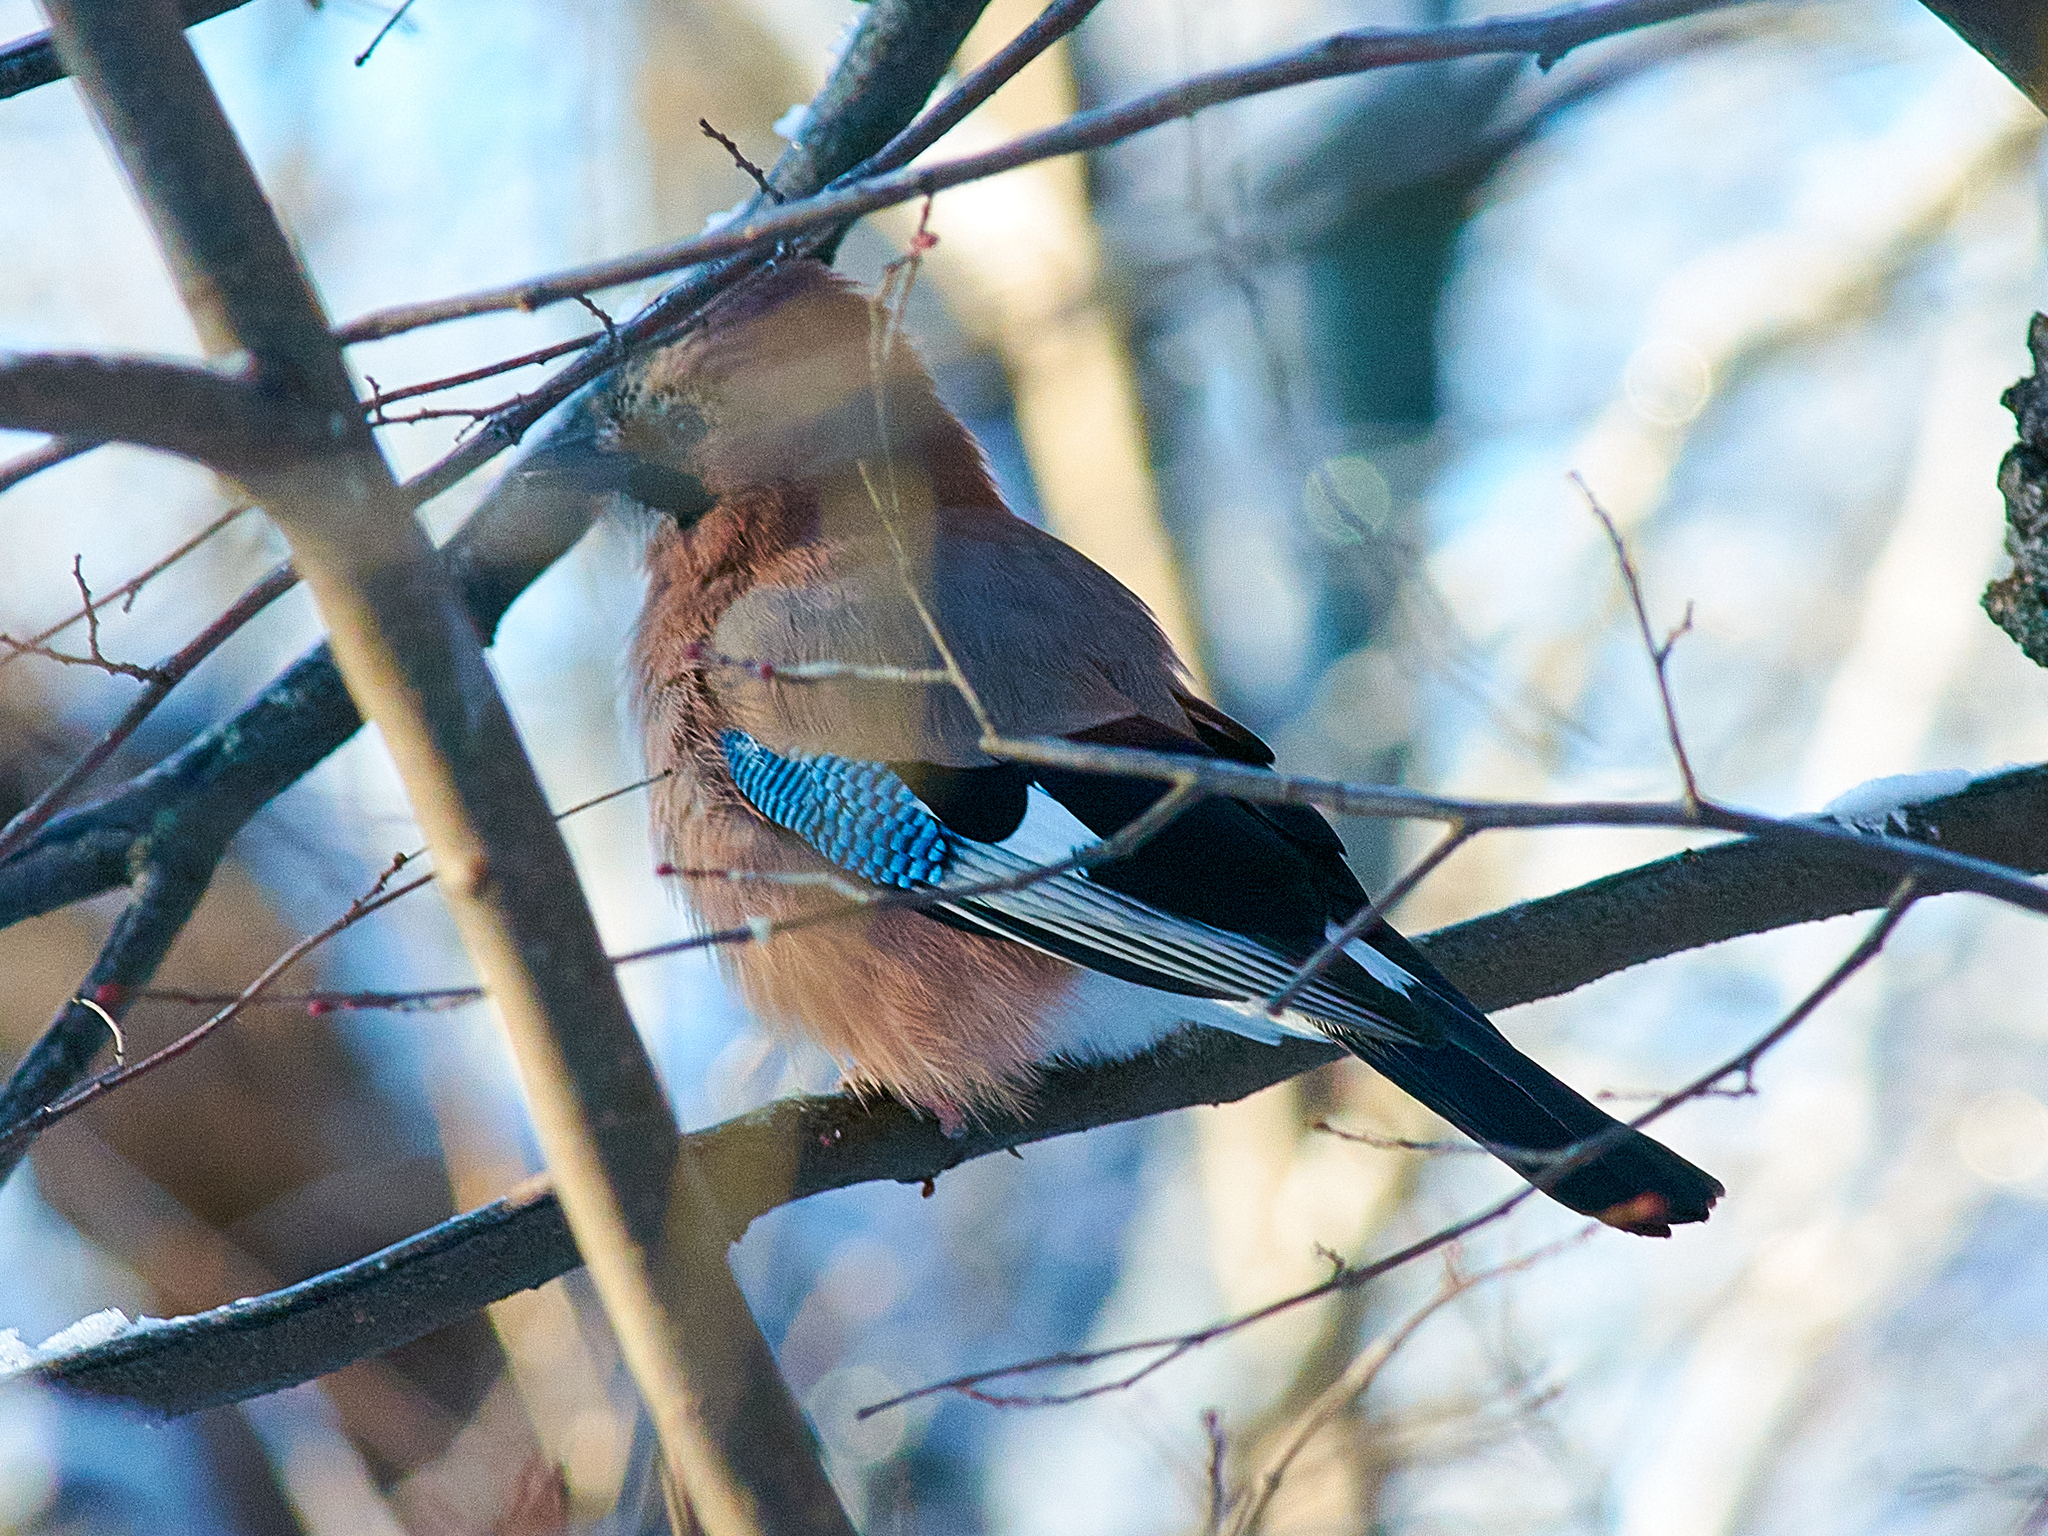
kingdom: Animalia
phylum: Chordata
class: Aves
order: Passeriformes
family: Corvidae
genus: Garrulus
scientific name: Garrulus glandarius
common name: Eurasian jay
